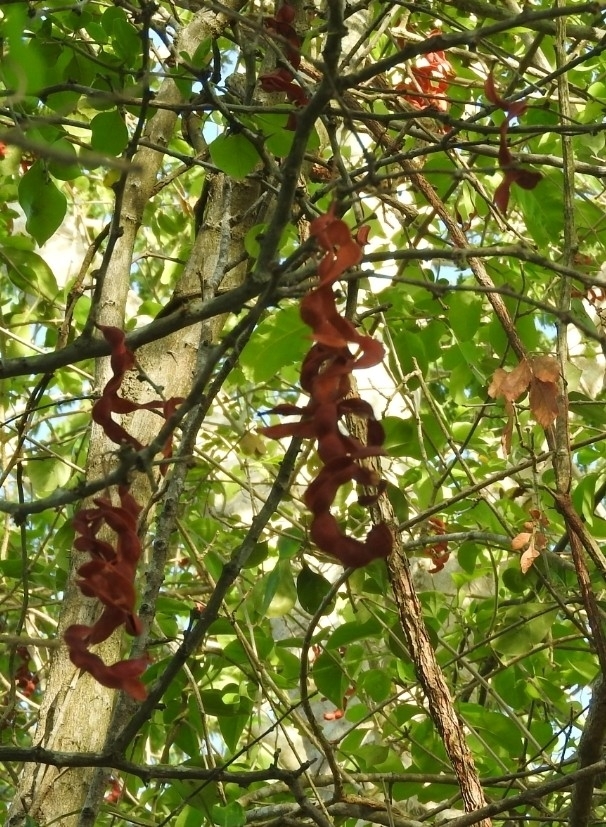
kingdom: Plantae
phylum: Tracheophyta
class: Magnoliopsida
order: Fabales
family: Fabaceae
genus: Pithecellobium
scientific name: Pithecellobium dulce
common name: Monkeypod
